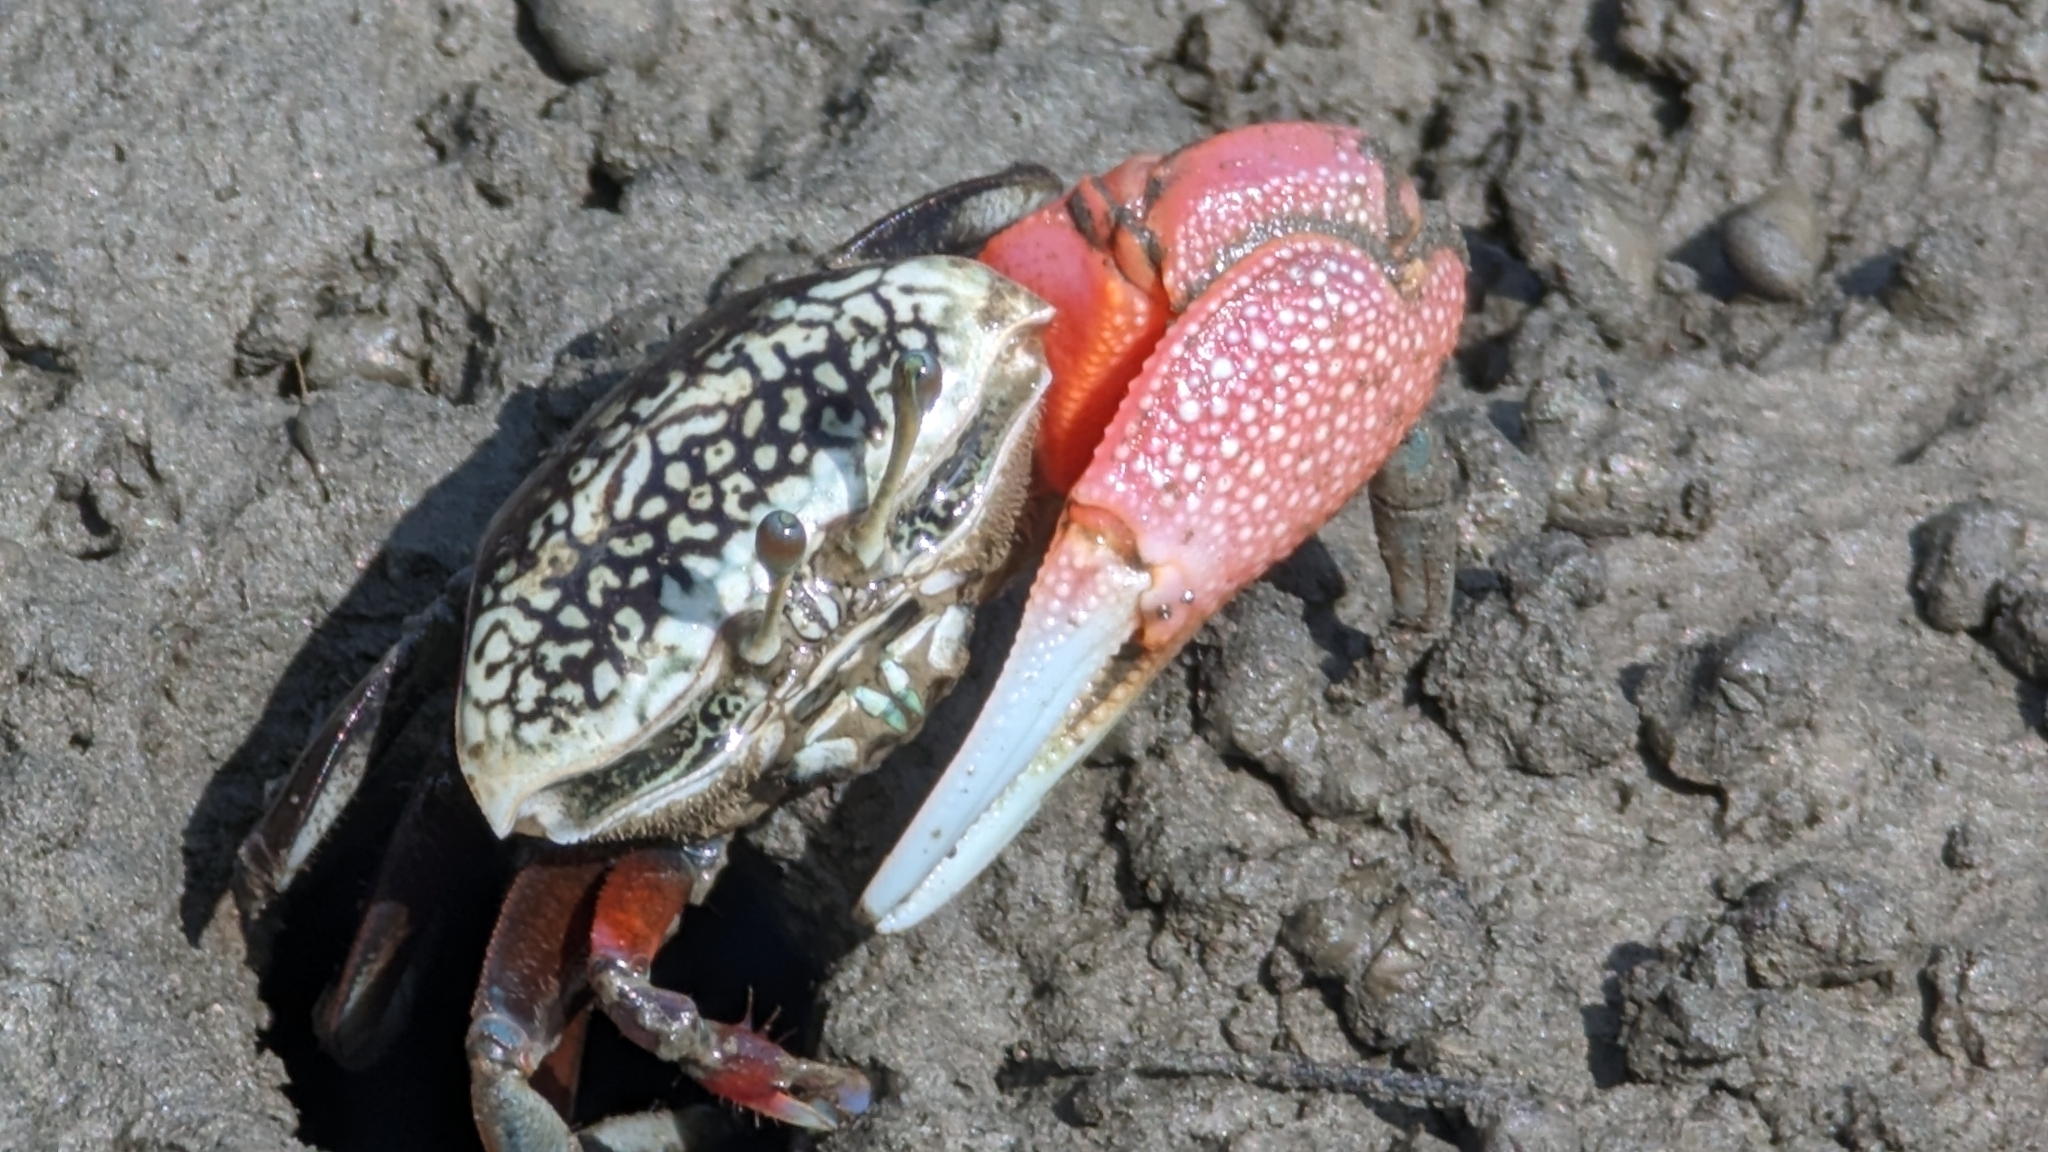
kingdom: Animalia
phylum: Arthropoda
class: Malacostraca
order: Decapoda
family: Ocypodidae
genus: Tubuca
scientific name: Tubuca arcuata
